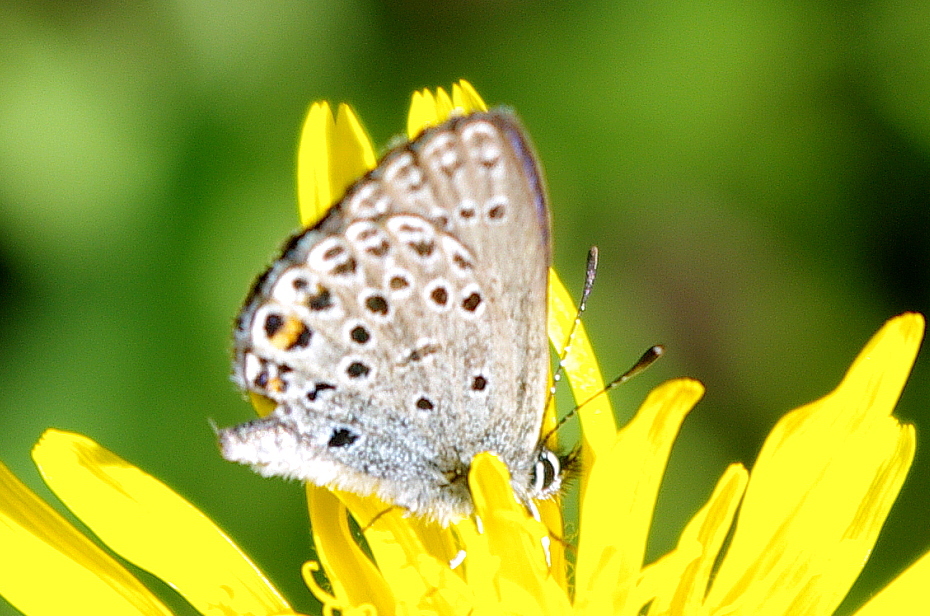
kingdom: Animalia
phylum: Arthropoda
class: Insecta
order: Lepidoptera
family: Lycaenidae
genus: Vacciniina
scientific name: Vacciniina optilete
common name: Cranberry blue
